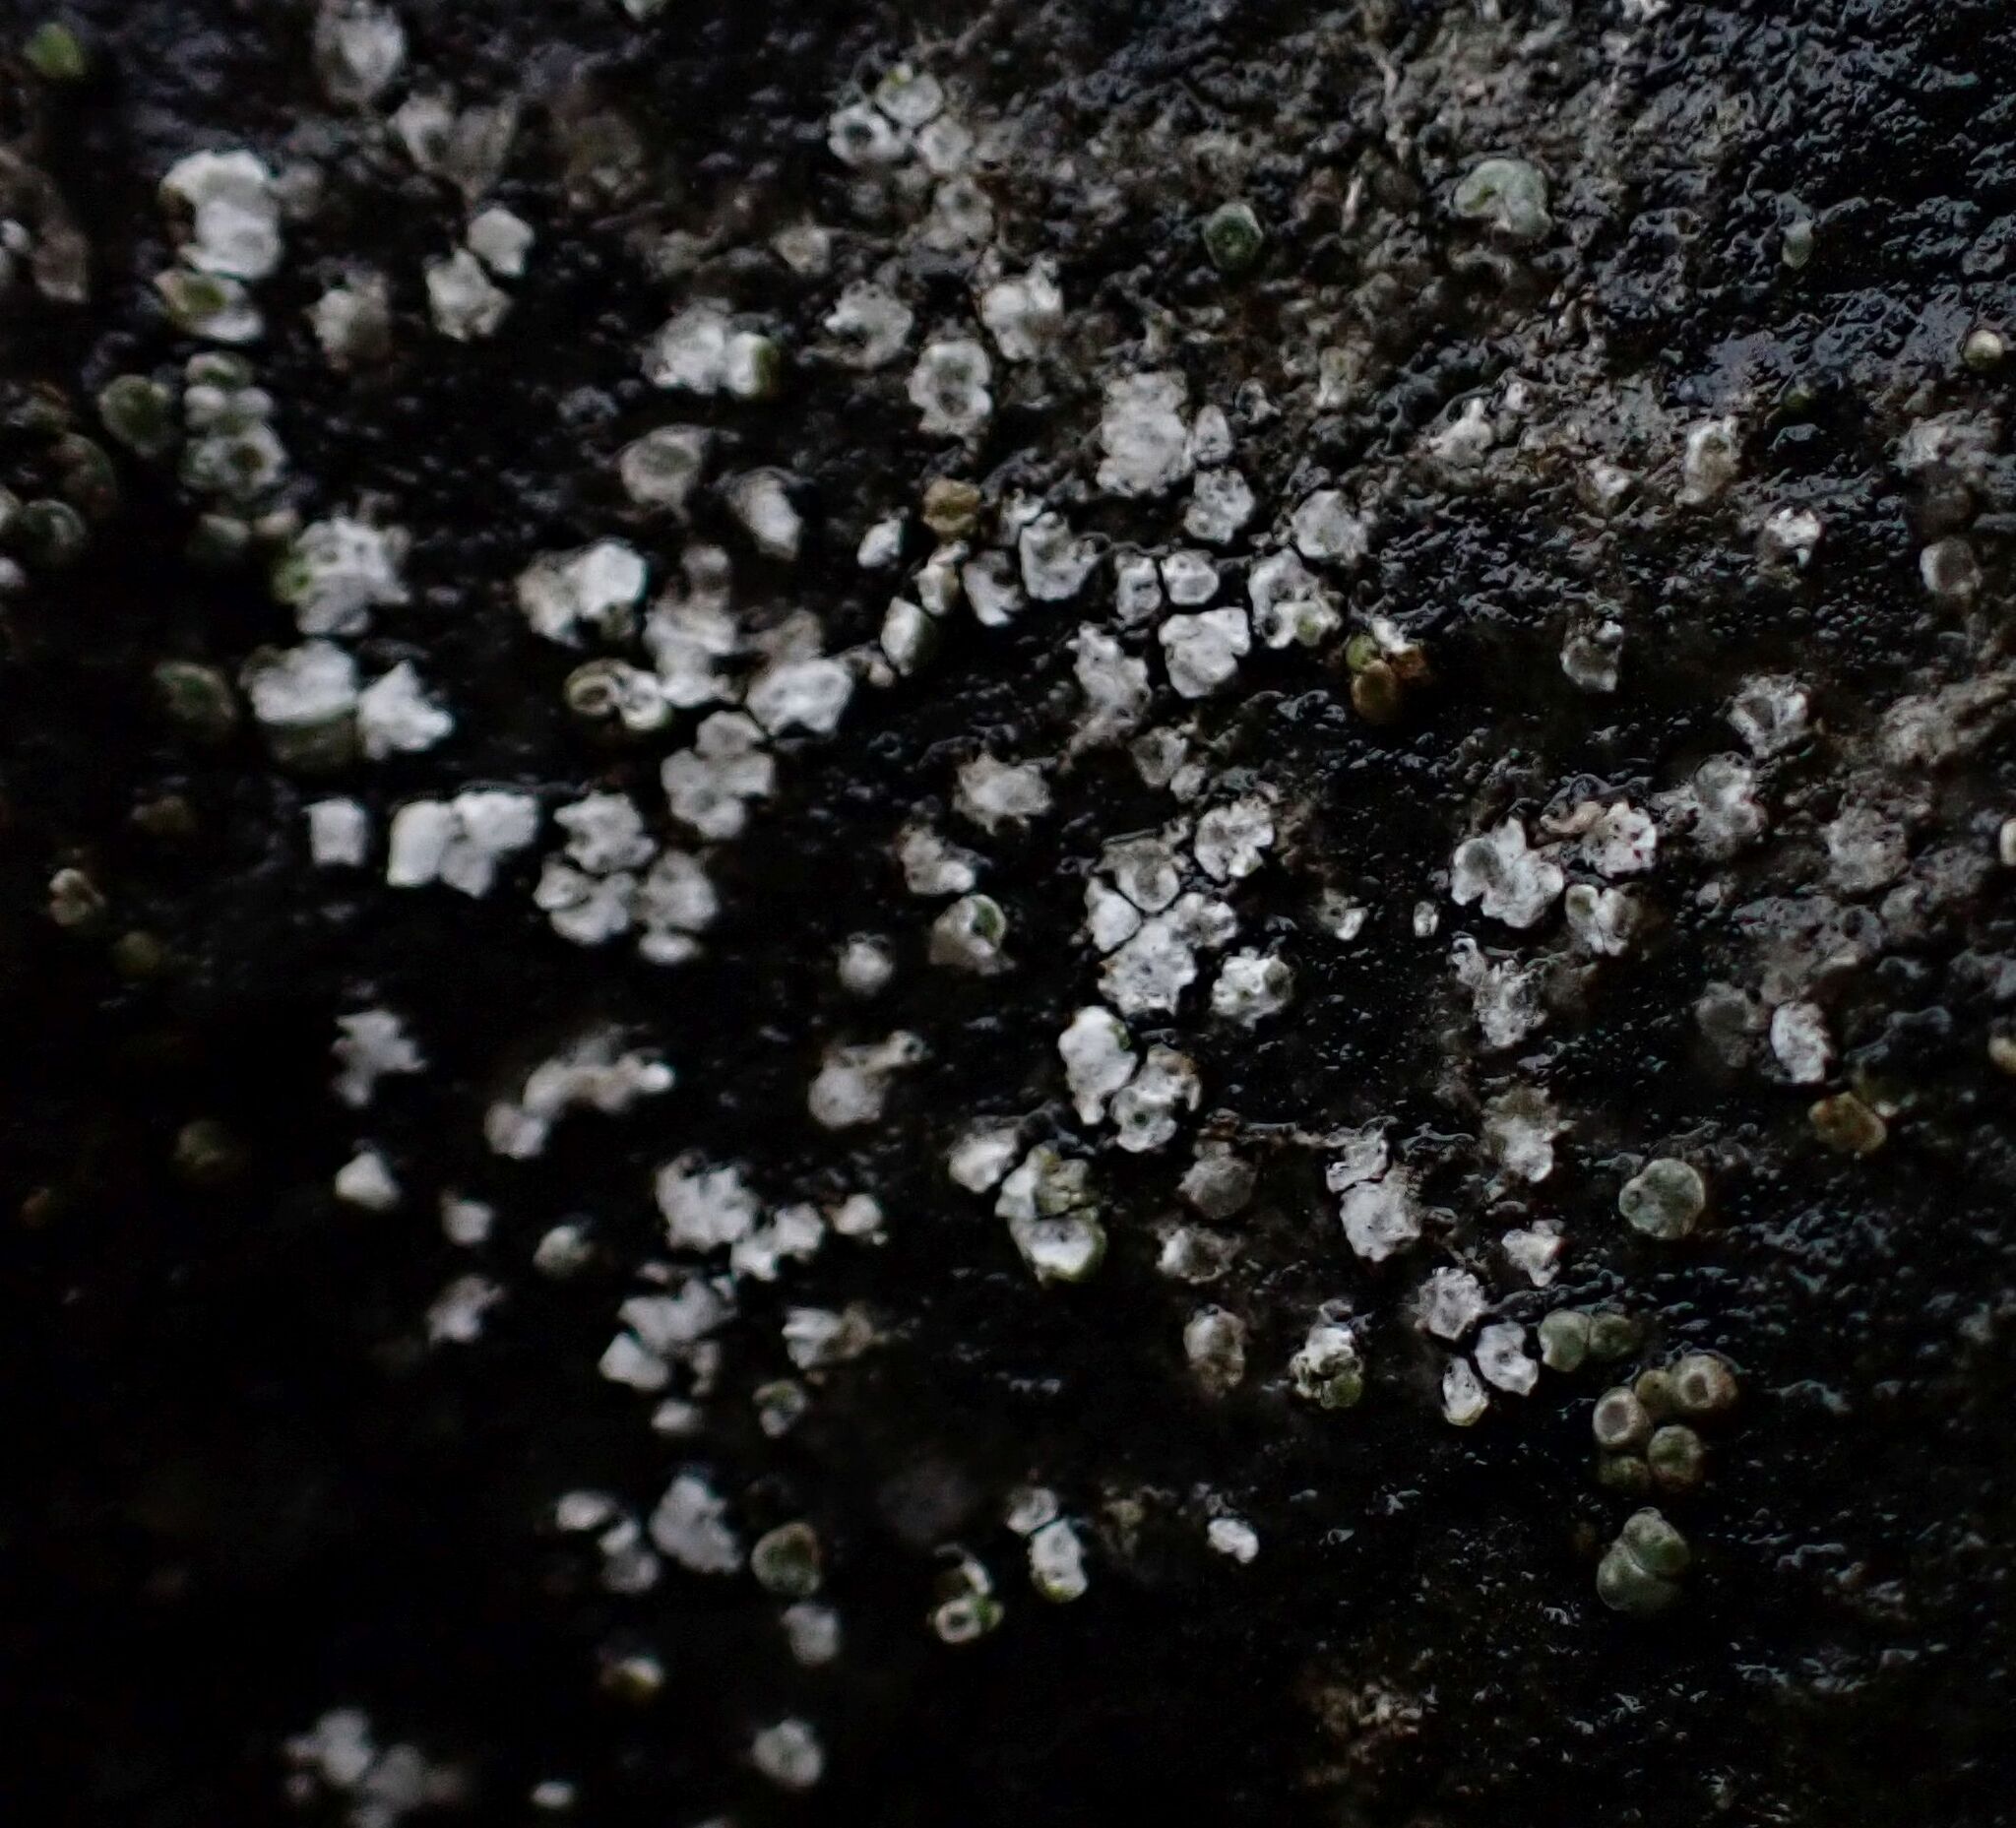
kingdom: Fungi
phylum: Ascomycota
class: Lecanoromycetes
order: Pertusariales
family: Megasporaceae
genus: Circinaria
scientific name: Circinaria contorta
